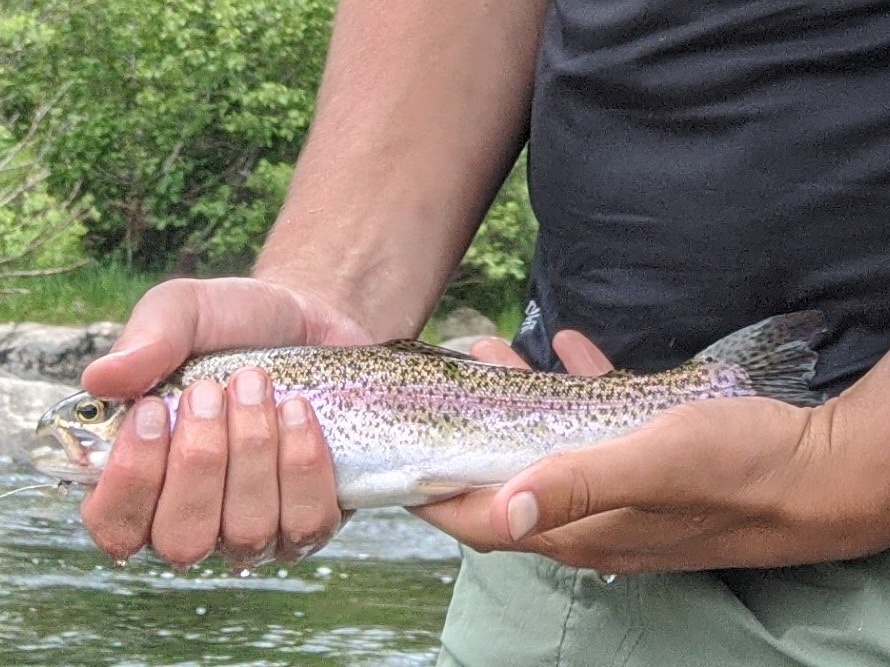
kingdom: Animalia
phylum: Chordata
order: Salmoniformes
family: Salmonidae
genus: Oncorhynchus
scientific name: Oncorhynchus mykiss
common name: Rainbow trout
